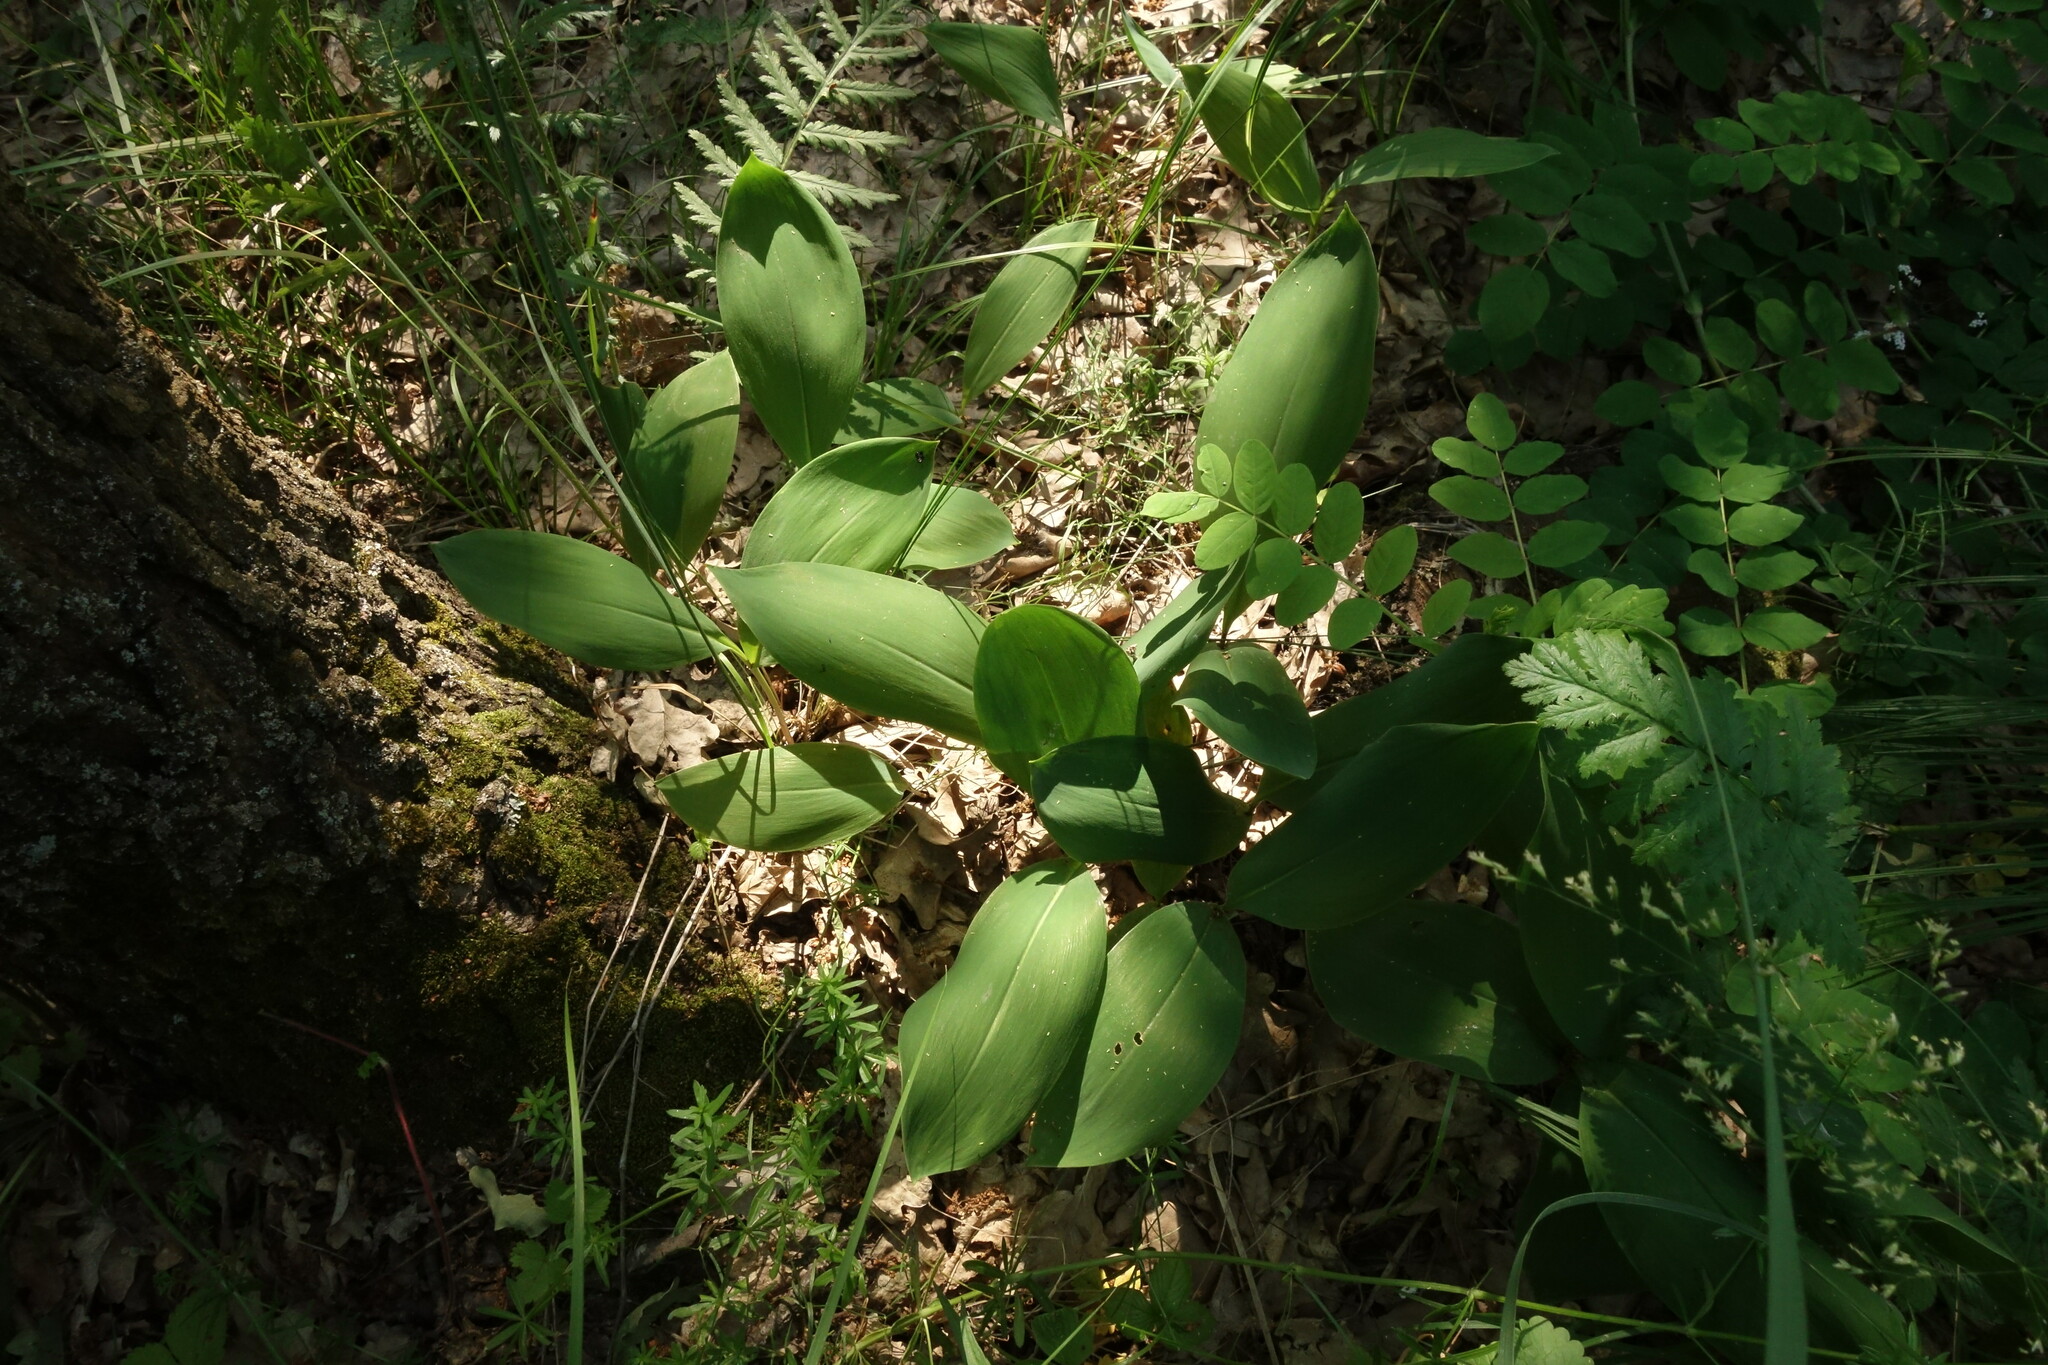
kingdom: Plantae
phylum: Tracheophyta
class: Liliopsida
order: Asparagales
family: Asparagaceae
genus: Convallaria
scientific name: Convallaria majalis
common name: Lily-of-the-valley
